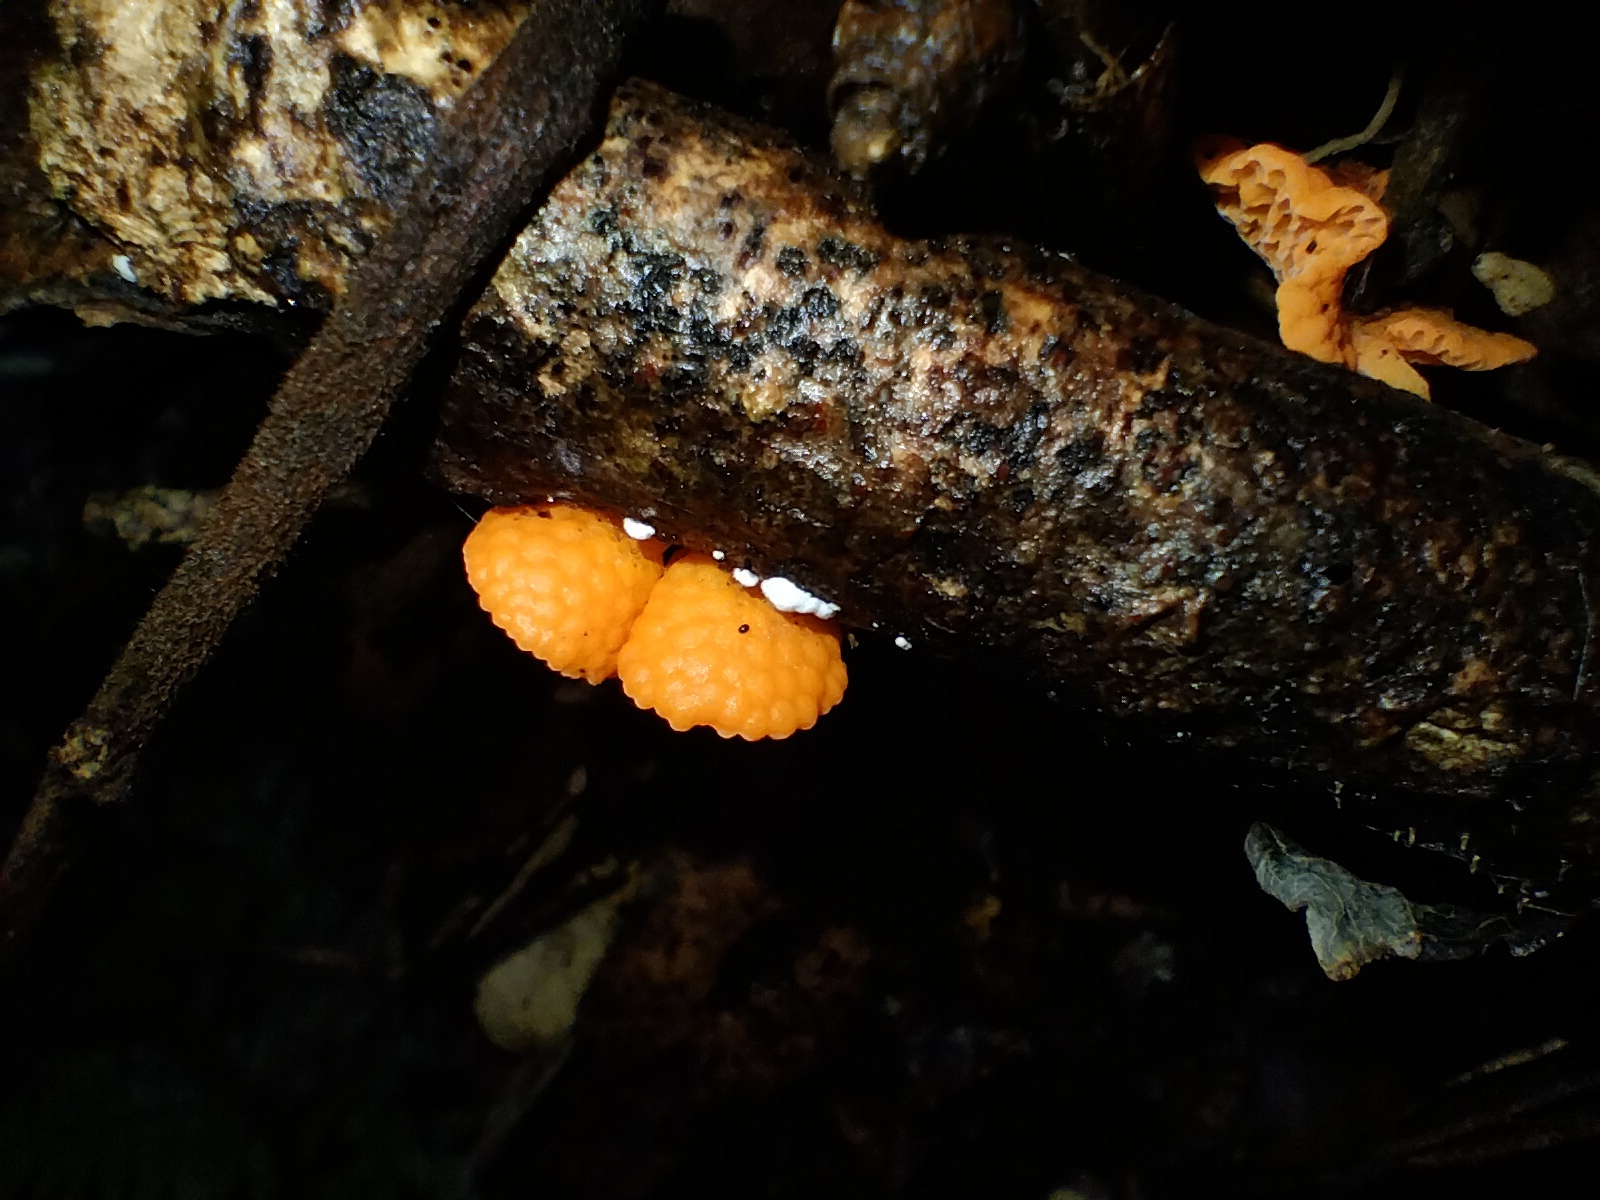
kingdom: Fungi
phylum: Basidiomycota
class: Agaricomycetes
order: Agaricales
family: Mycenaceae
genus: Favolaschia
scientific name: Favolaschia claudopus
